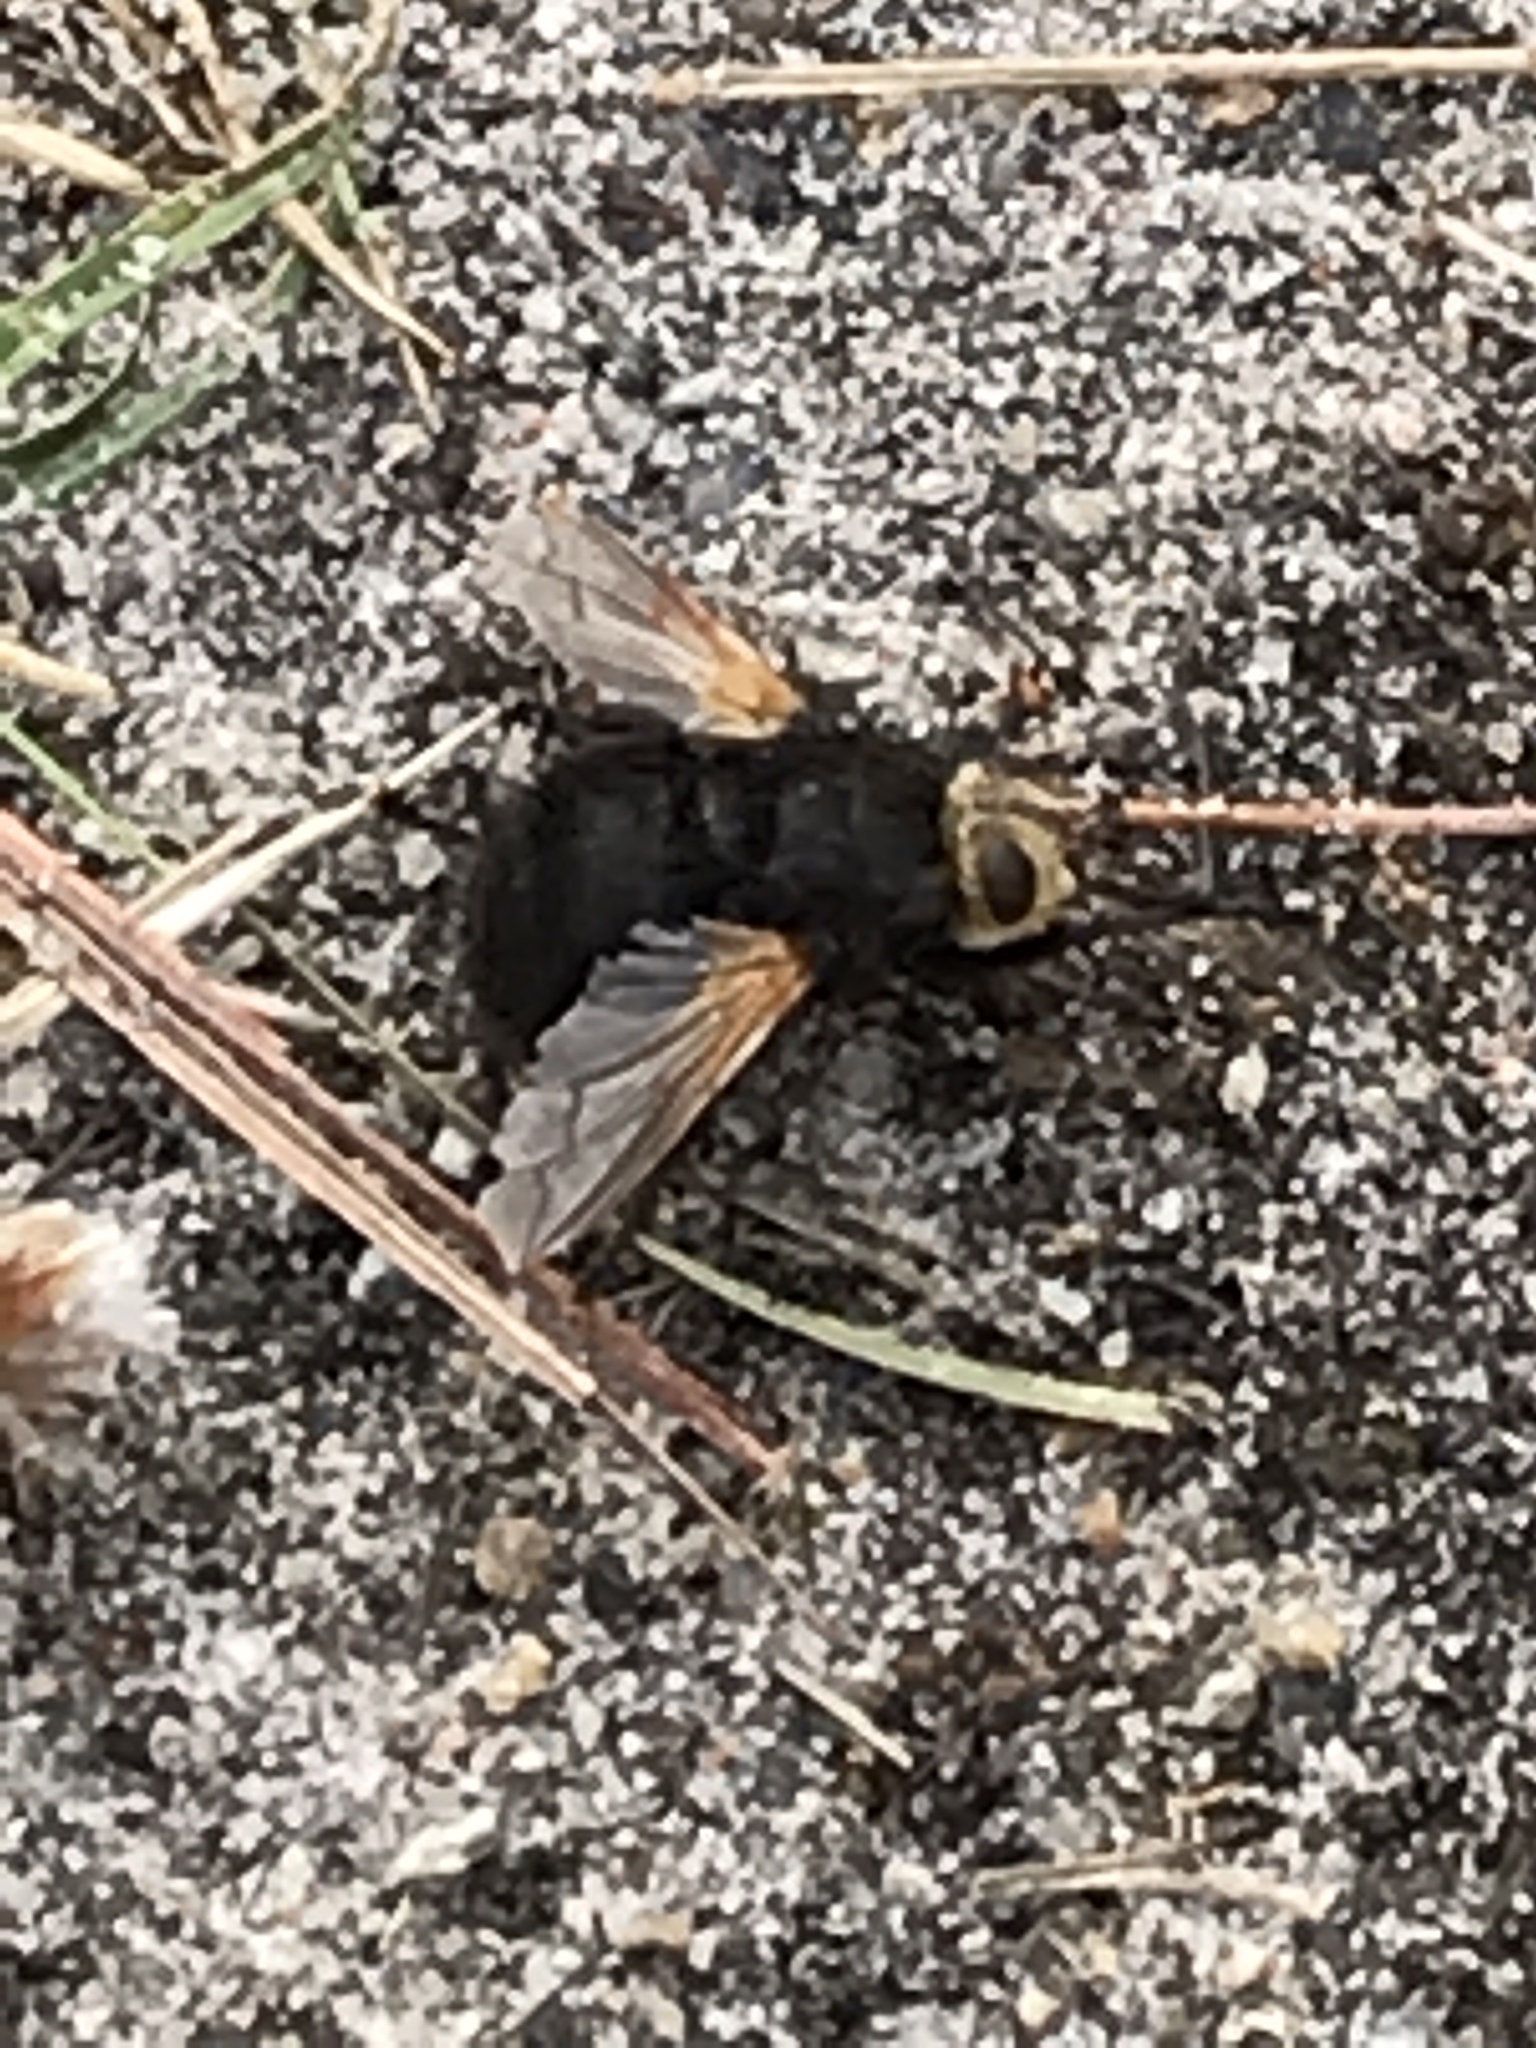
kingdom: Animalia
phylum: Arthropoda
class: Insecta
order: Diptera
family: Tachinidae
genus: Tachina
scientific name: Tachina grossa
